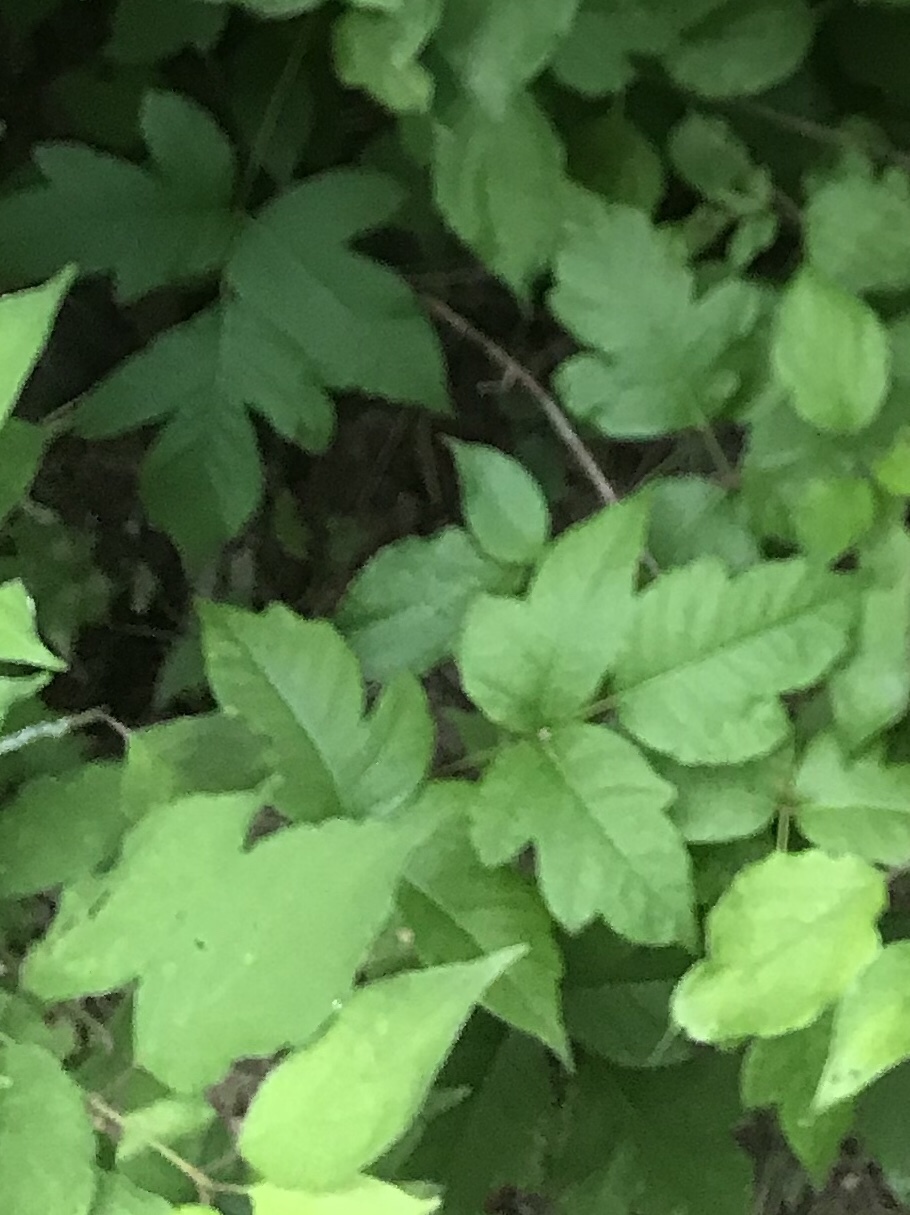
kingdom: Plantae
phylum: Tracheophyta
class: Magnoliopsida
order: Sapindales
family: Anacardiaceae
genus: Toxicodendron
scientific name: Toxicodendron radicans
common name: Poison ivy
